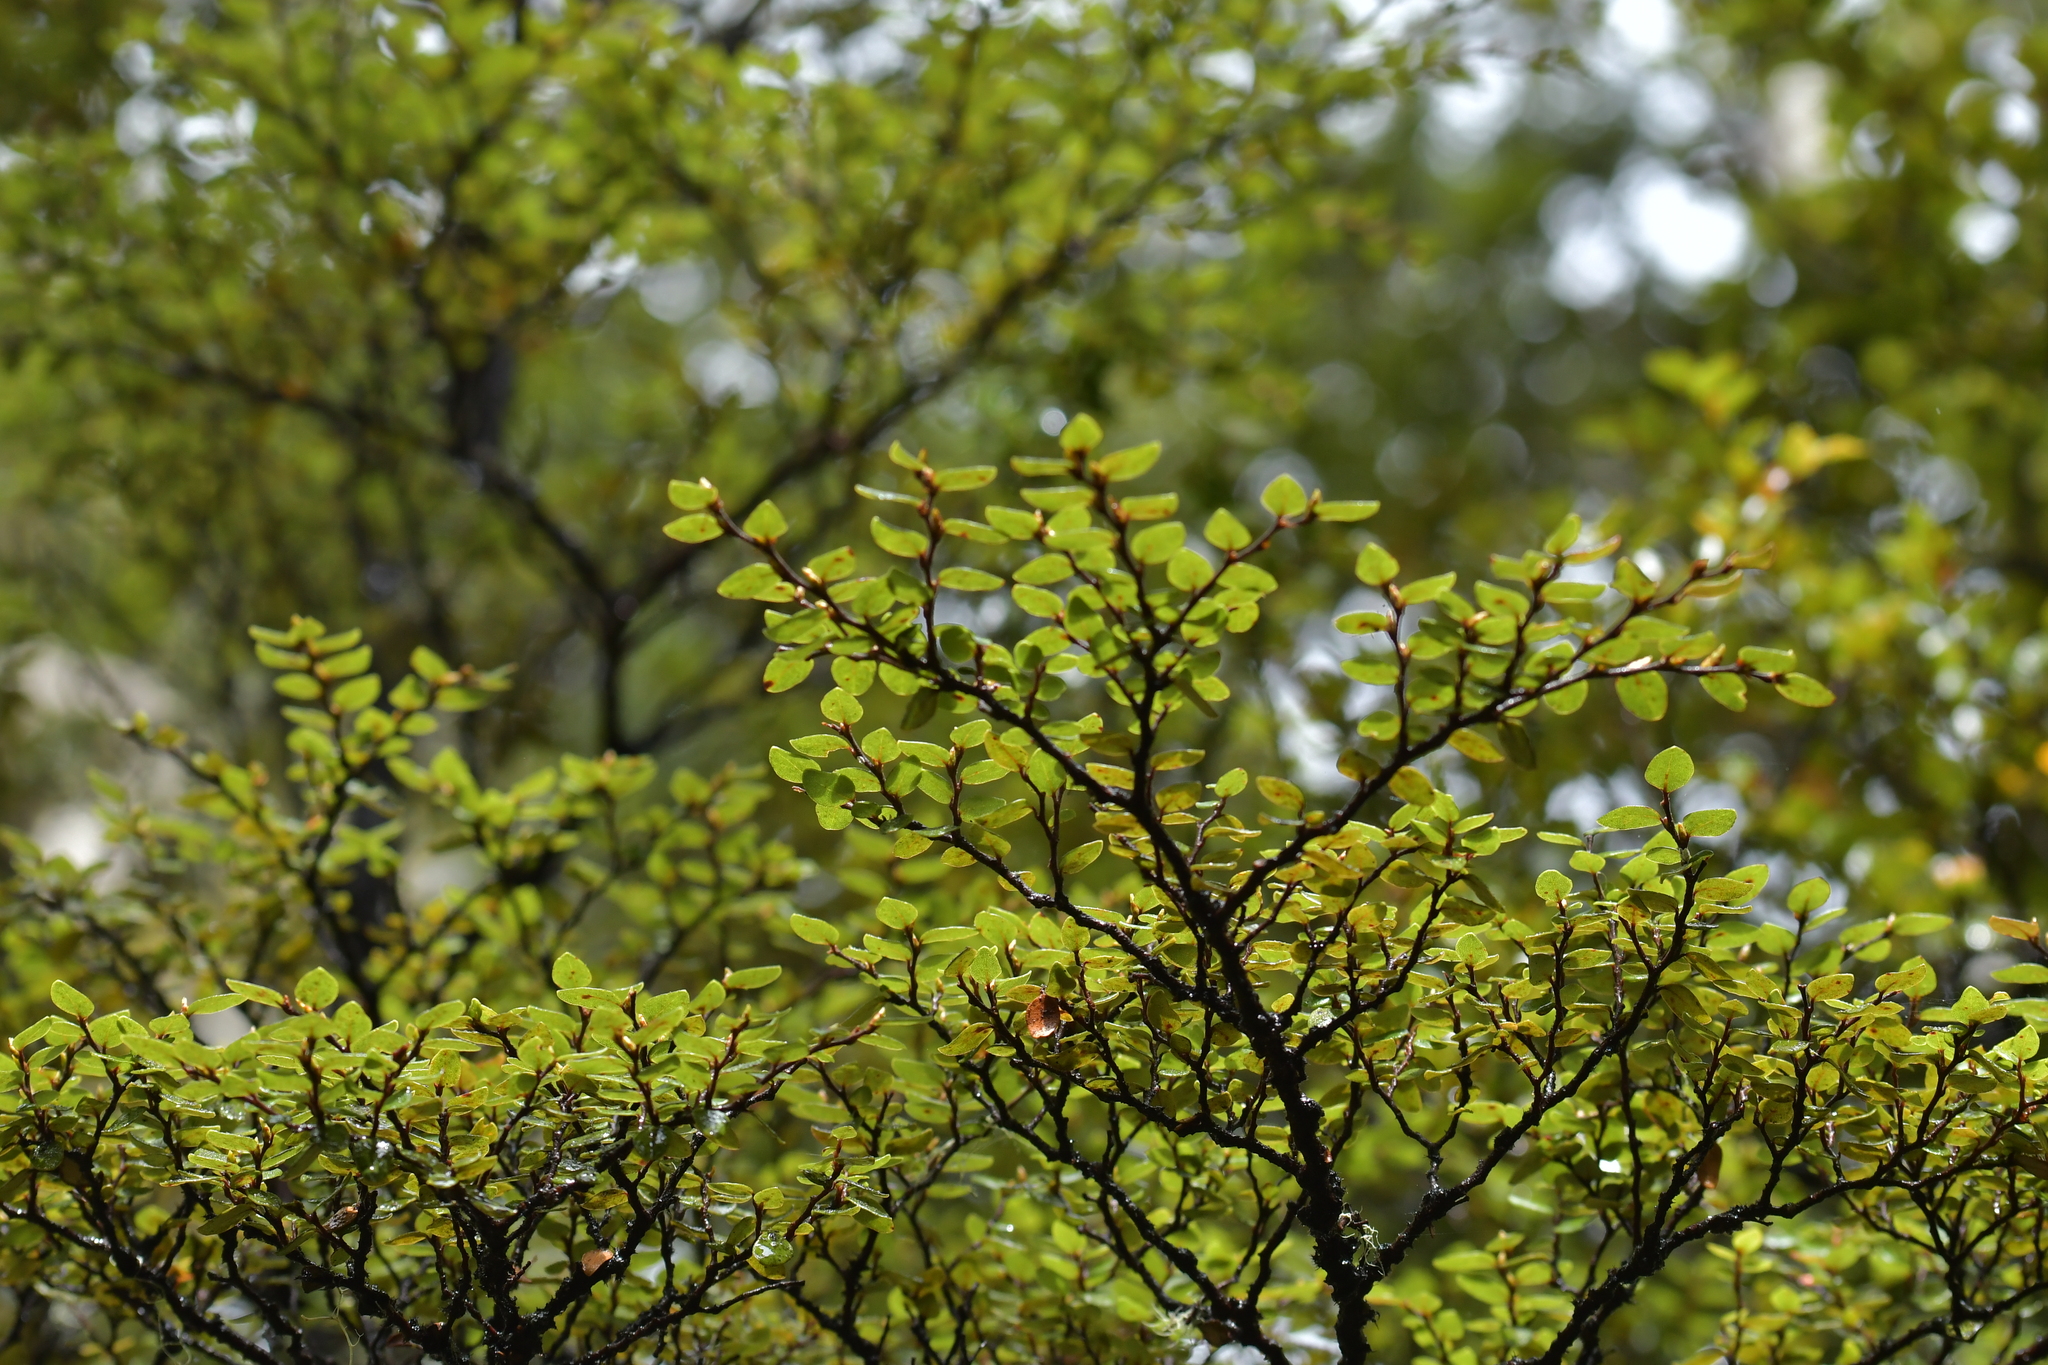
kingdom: Plantae
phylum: Tracheophyta
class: Magnoliopsida
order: Fagales
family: Nothofagaceae
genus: Nothofagus
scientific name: Nothofagus cliffortioides
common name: Mountain beech
